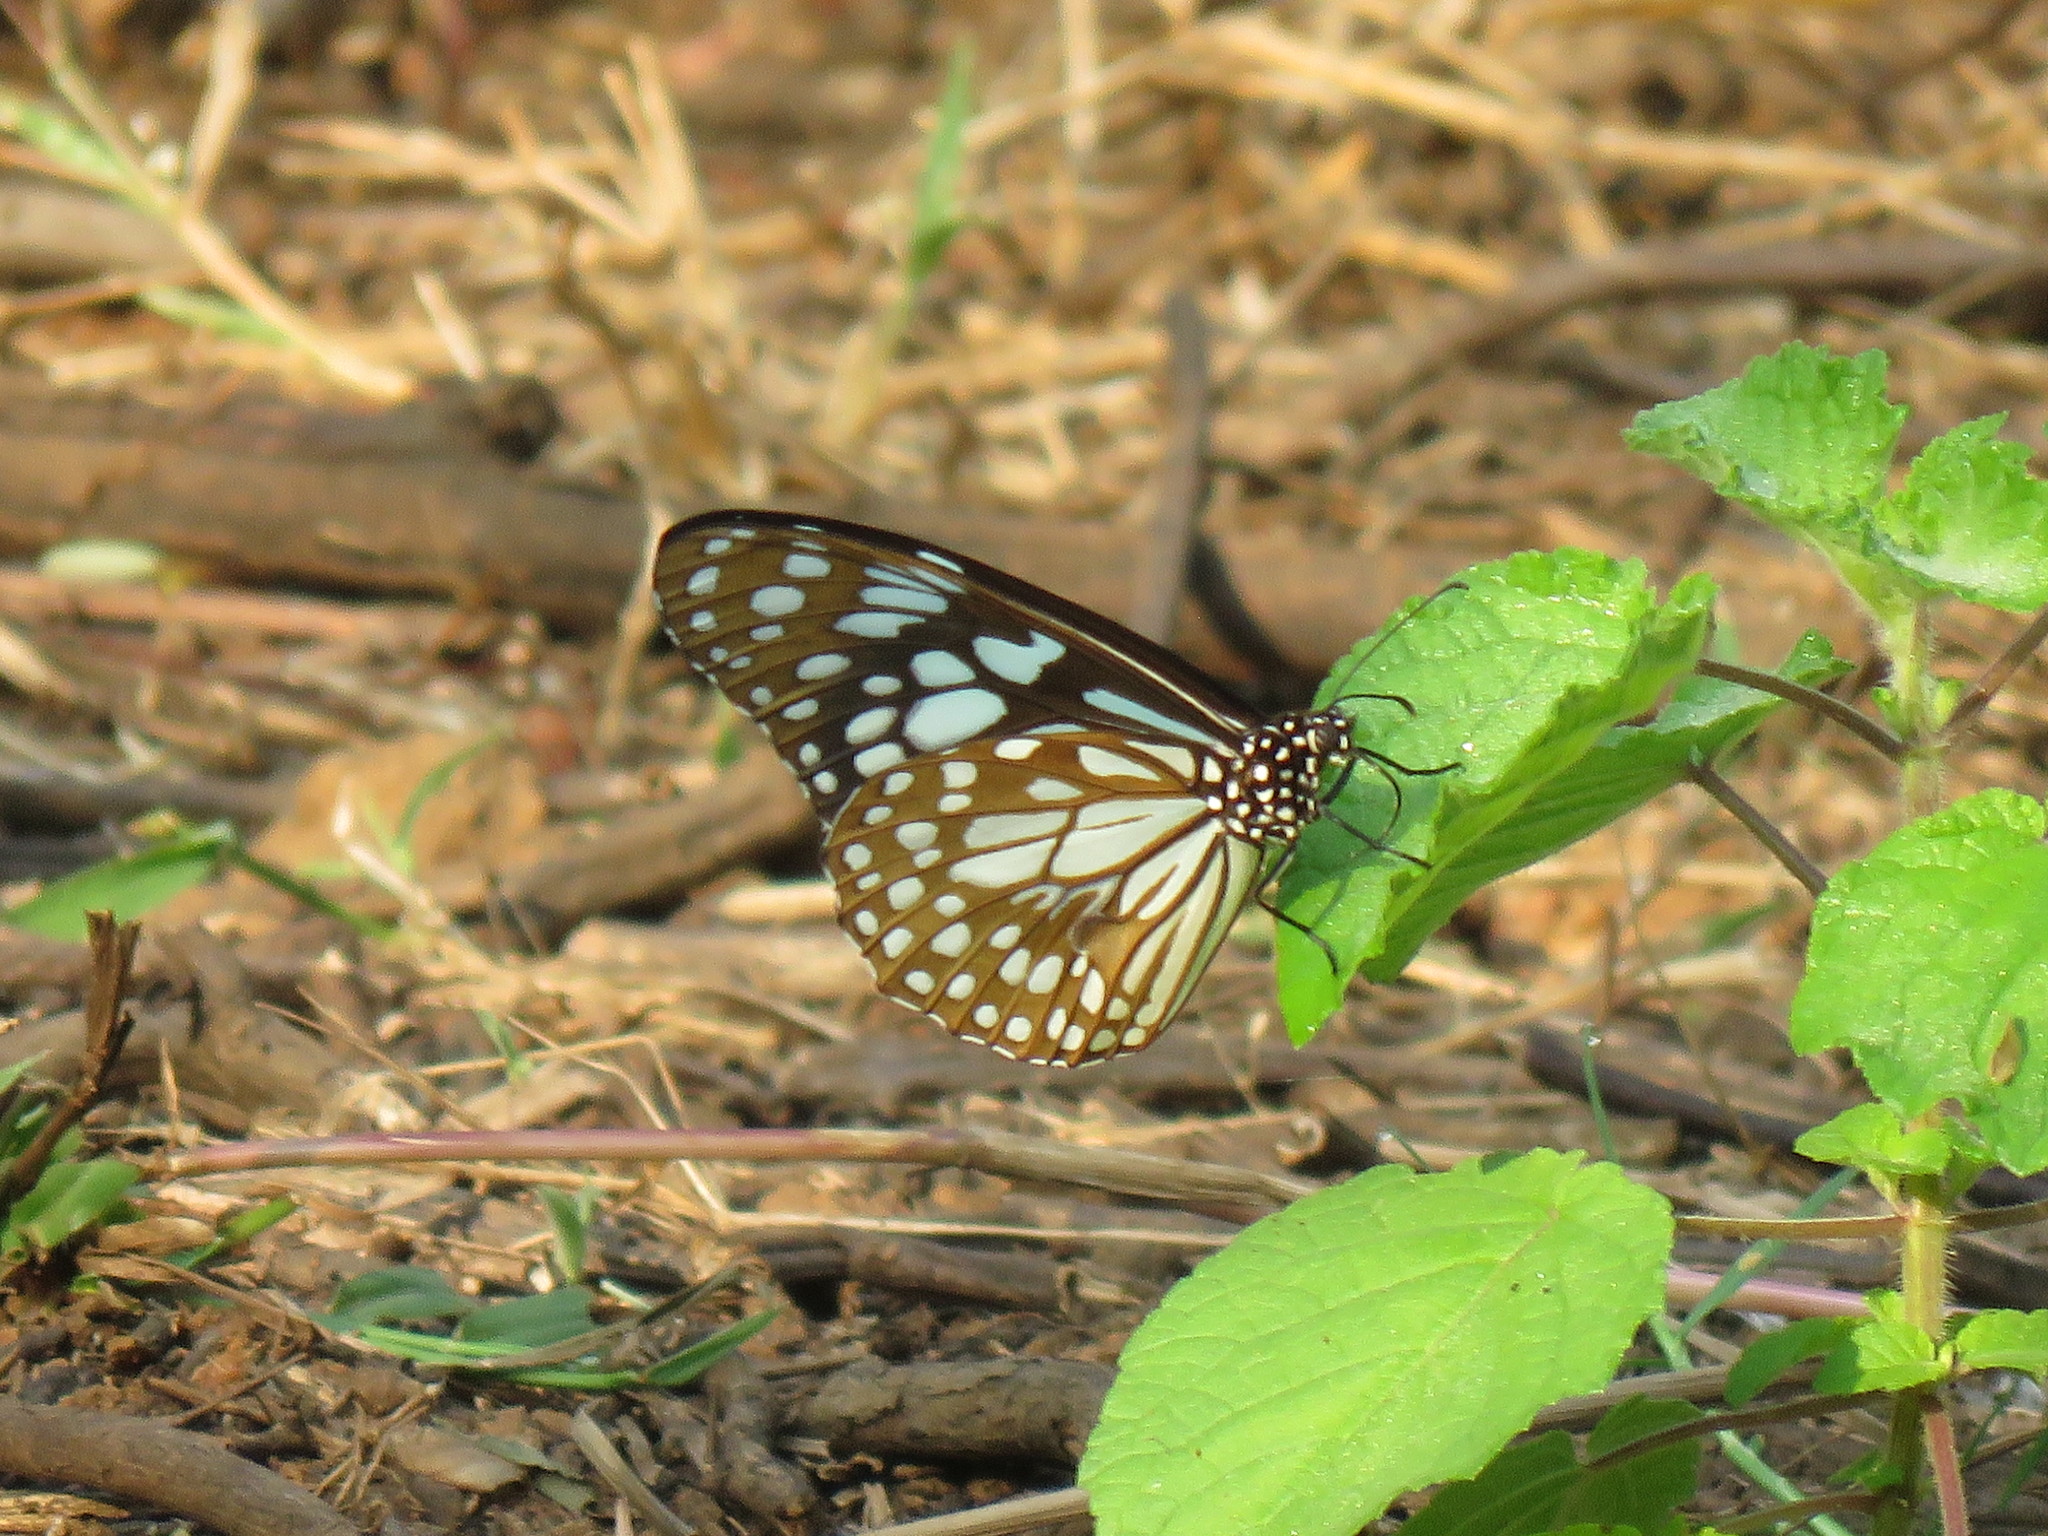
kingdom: Animalia
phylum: Arthropoda
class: Insecta
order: Lepidoptera
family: Nymphalidae
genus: Tirumala
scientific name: Tirumala limniace
